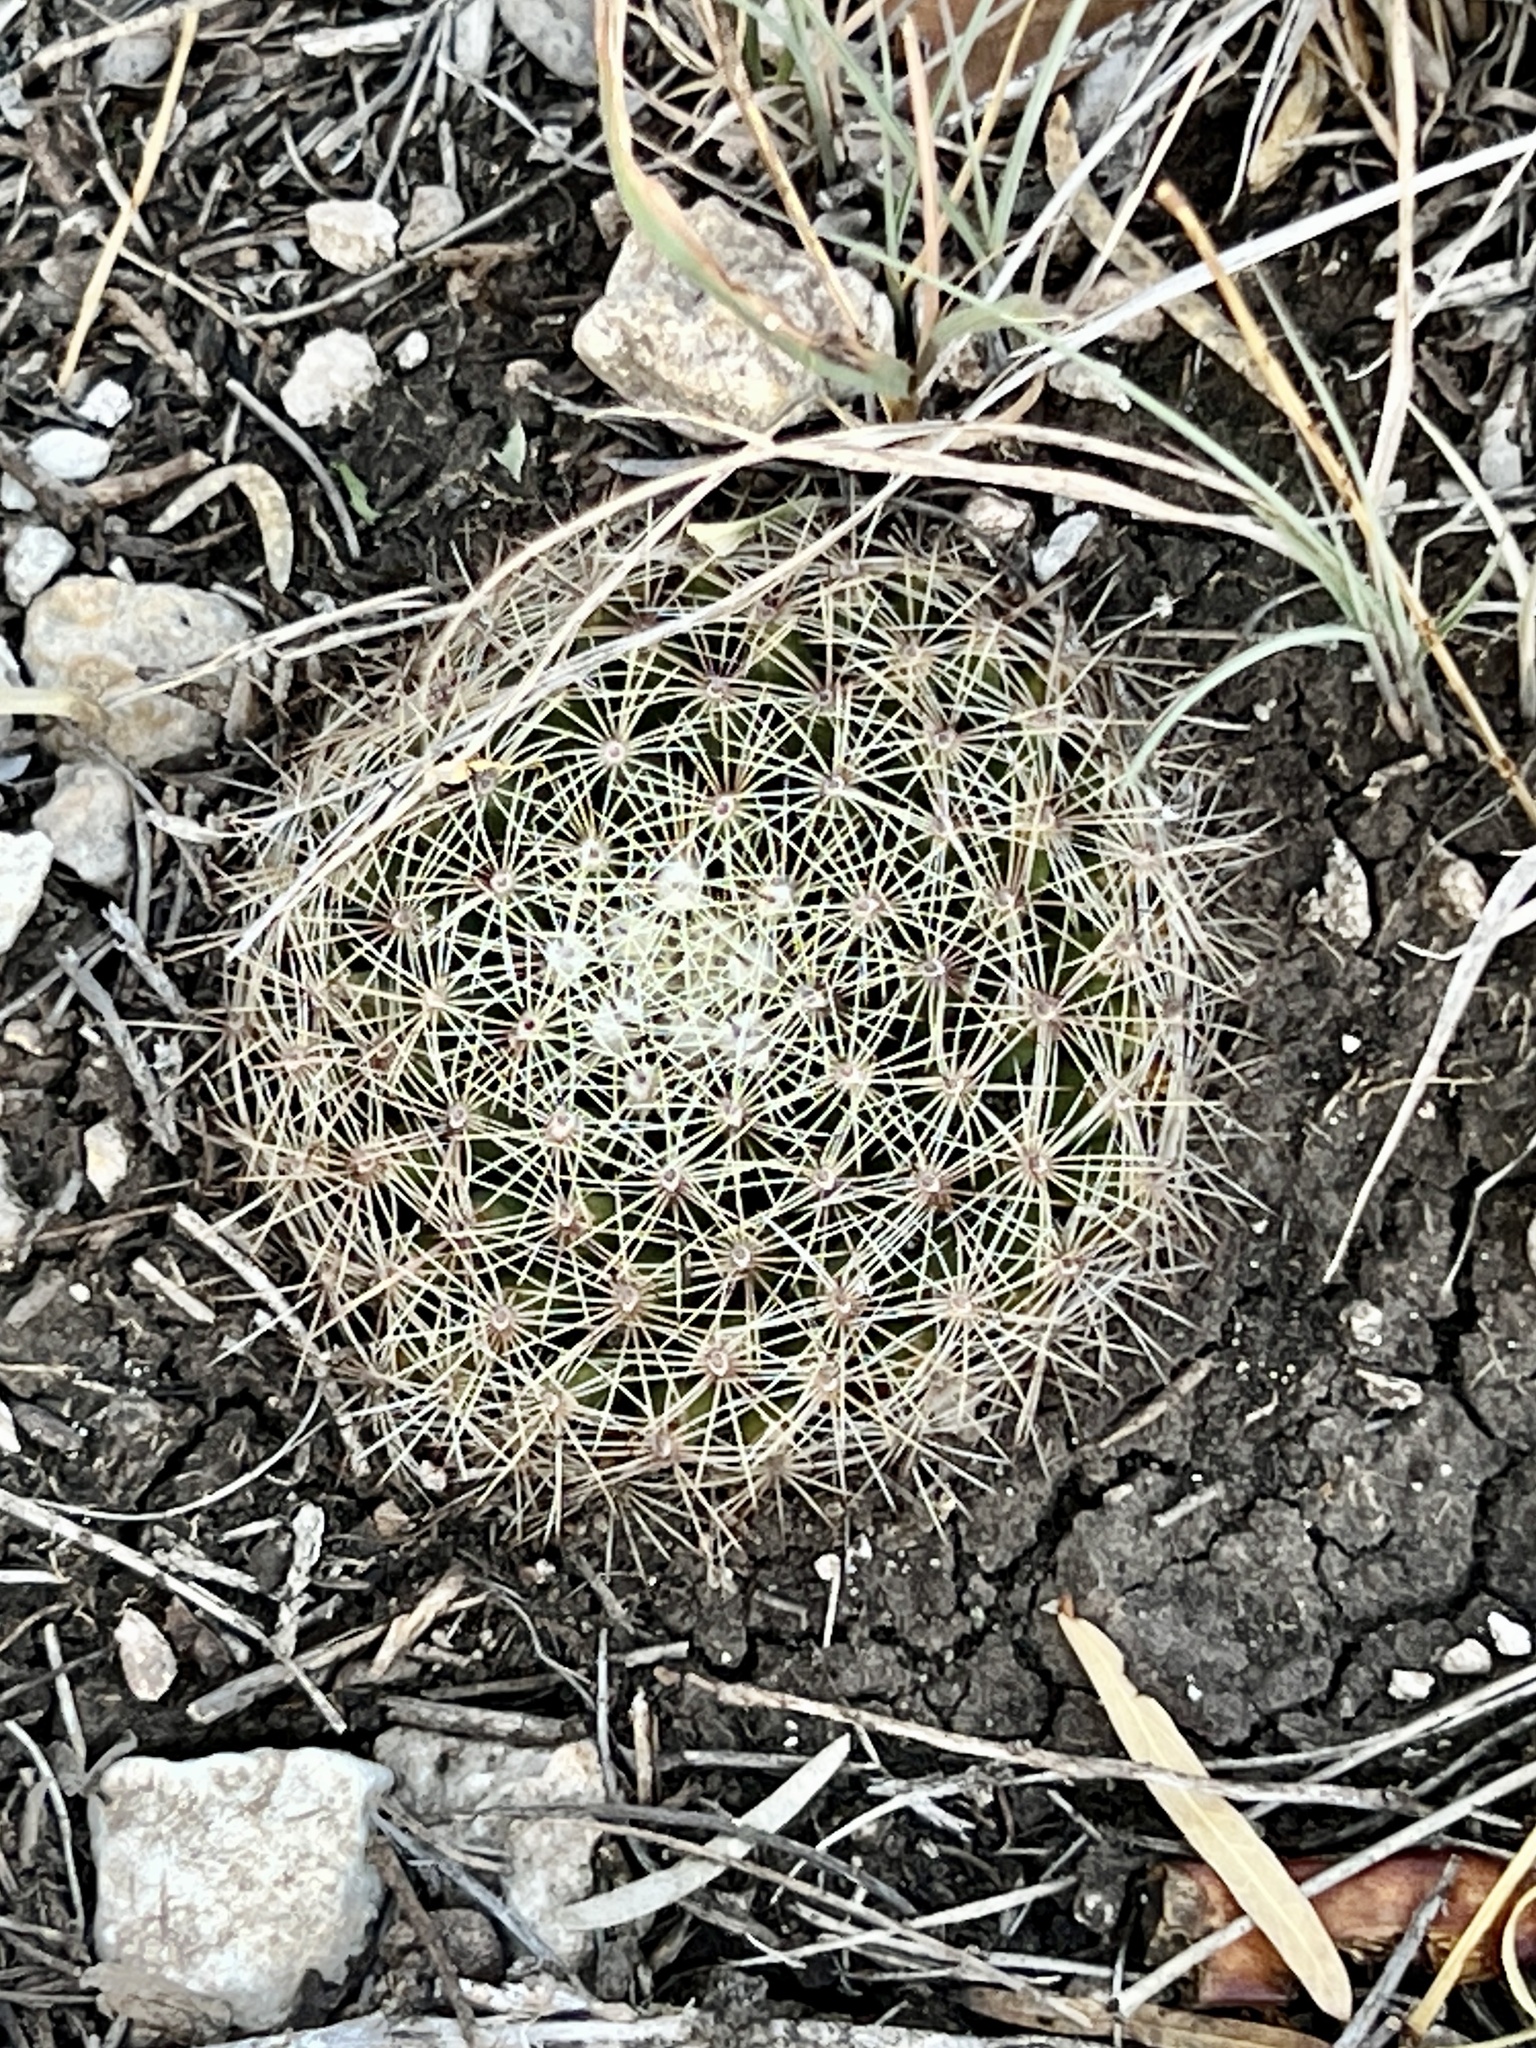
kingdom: Plantae
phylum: Tracheophyta
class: Magnoliopsida
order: Caryophyllales
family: Cactaceae
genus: Mammillaria
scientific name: Mammillaria heyderi
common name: Little nipple cactus
